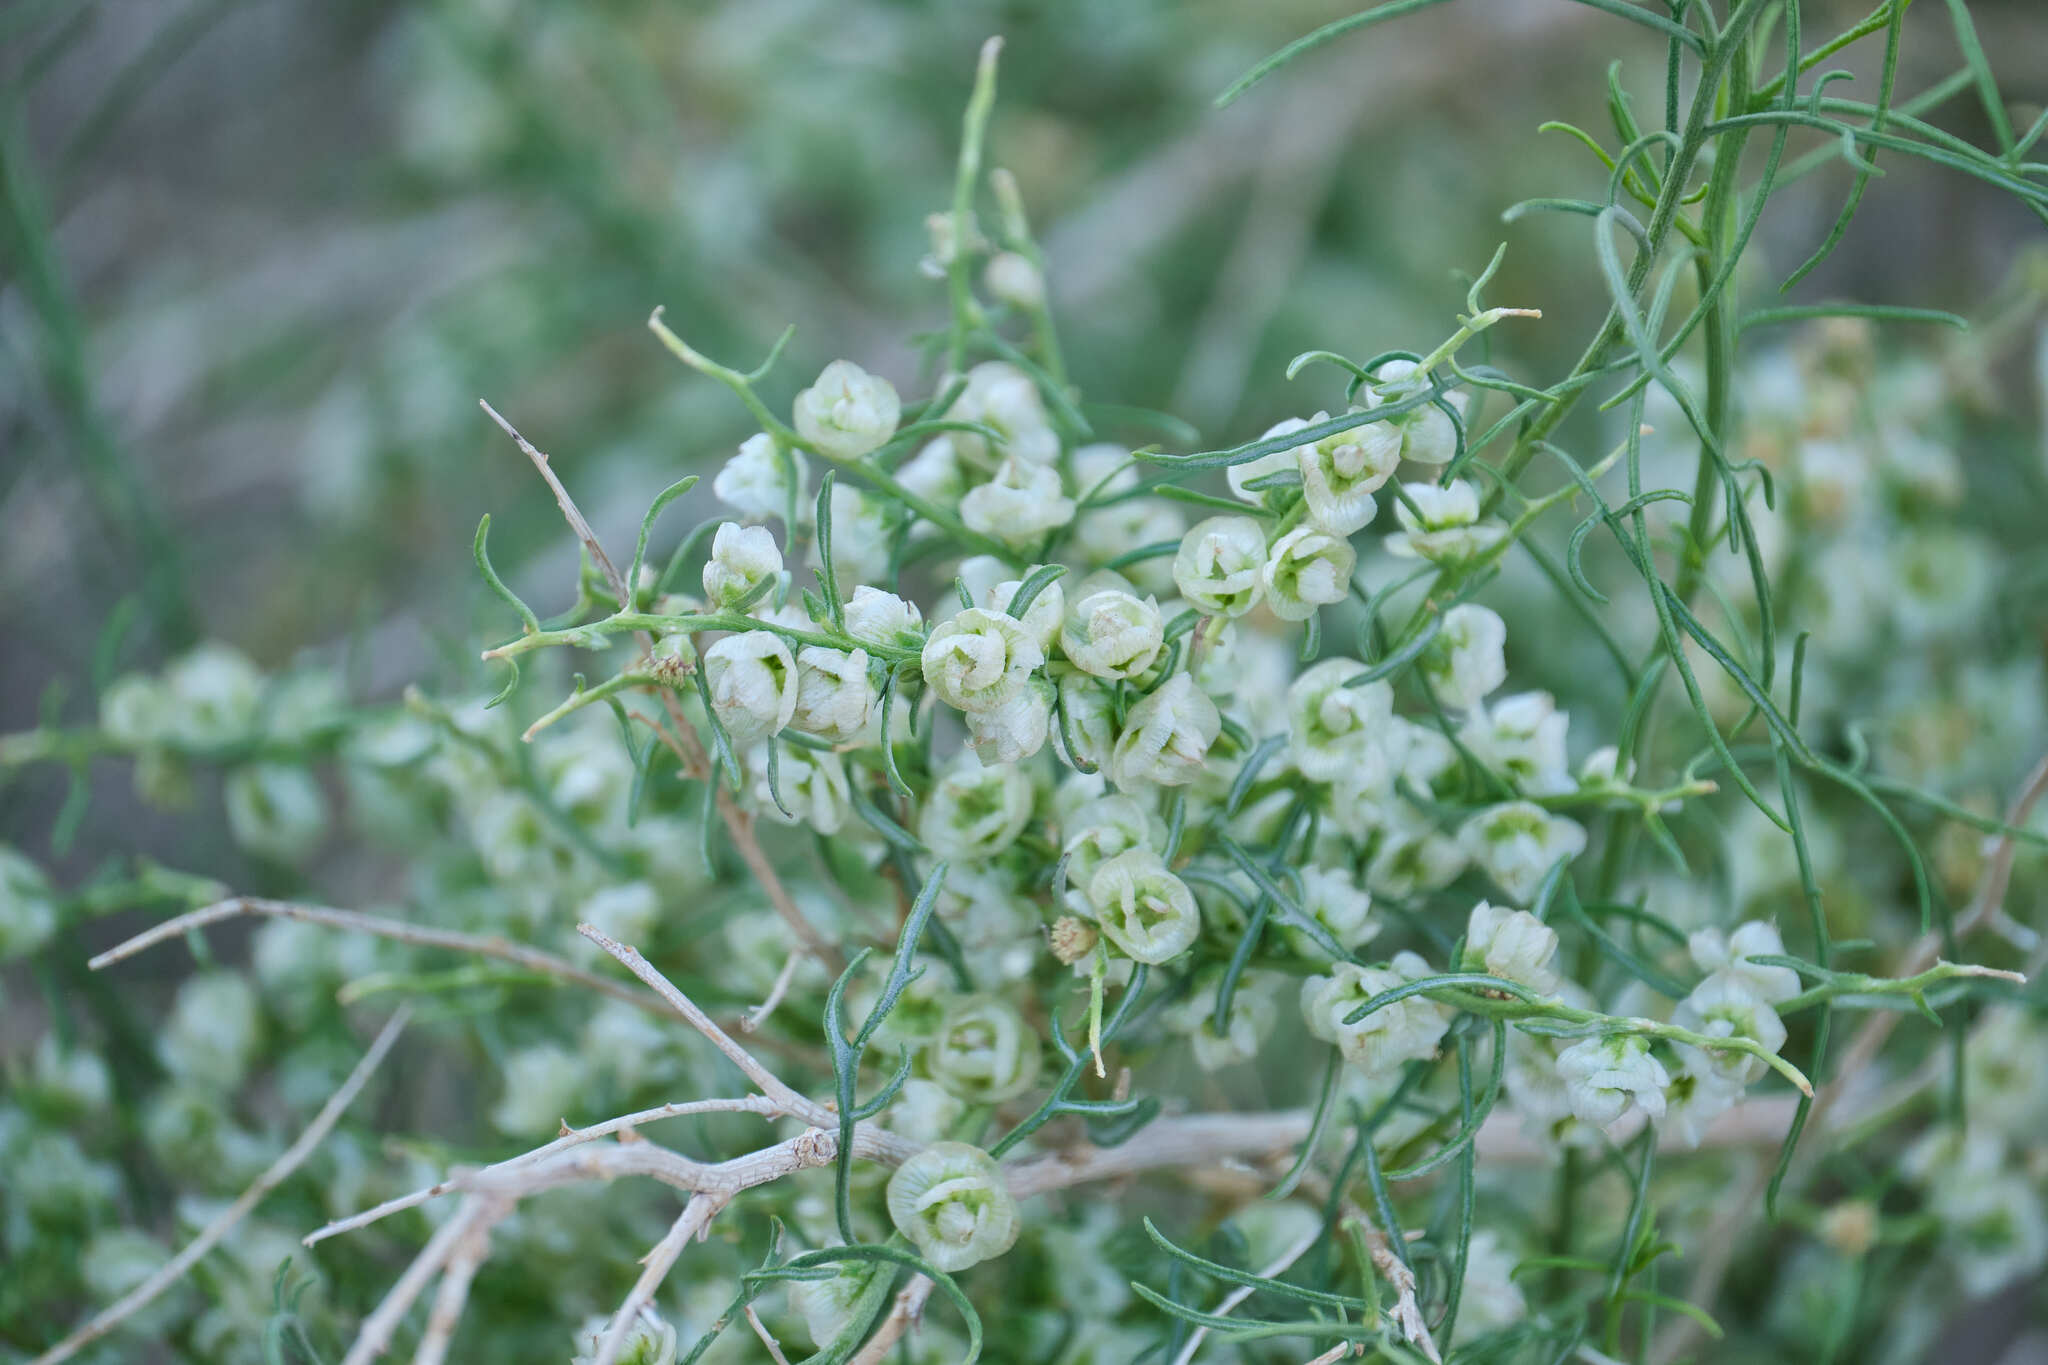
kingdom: Plantae
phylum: Tracheophyta
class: Magnoliopsida
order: Asterales
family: Asteraceae
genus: Ambrosia
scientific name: Ambrosia salsola
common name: Burrobrush
